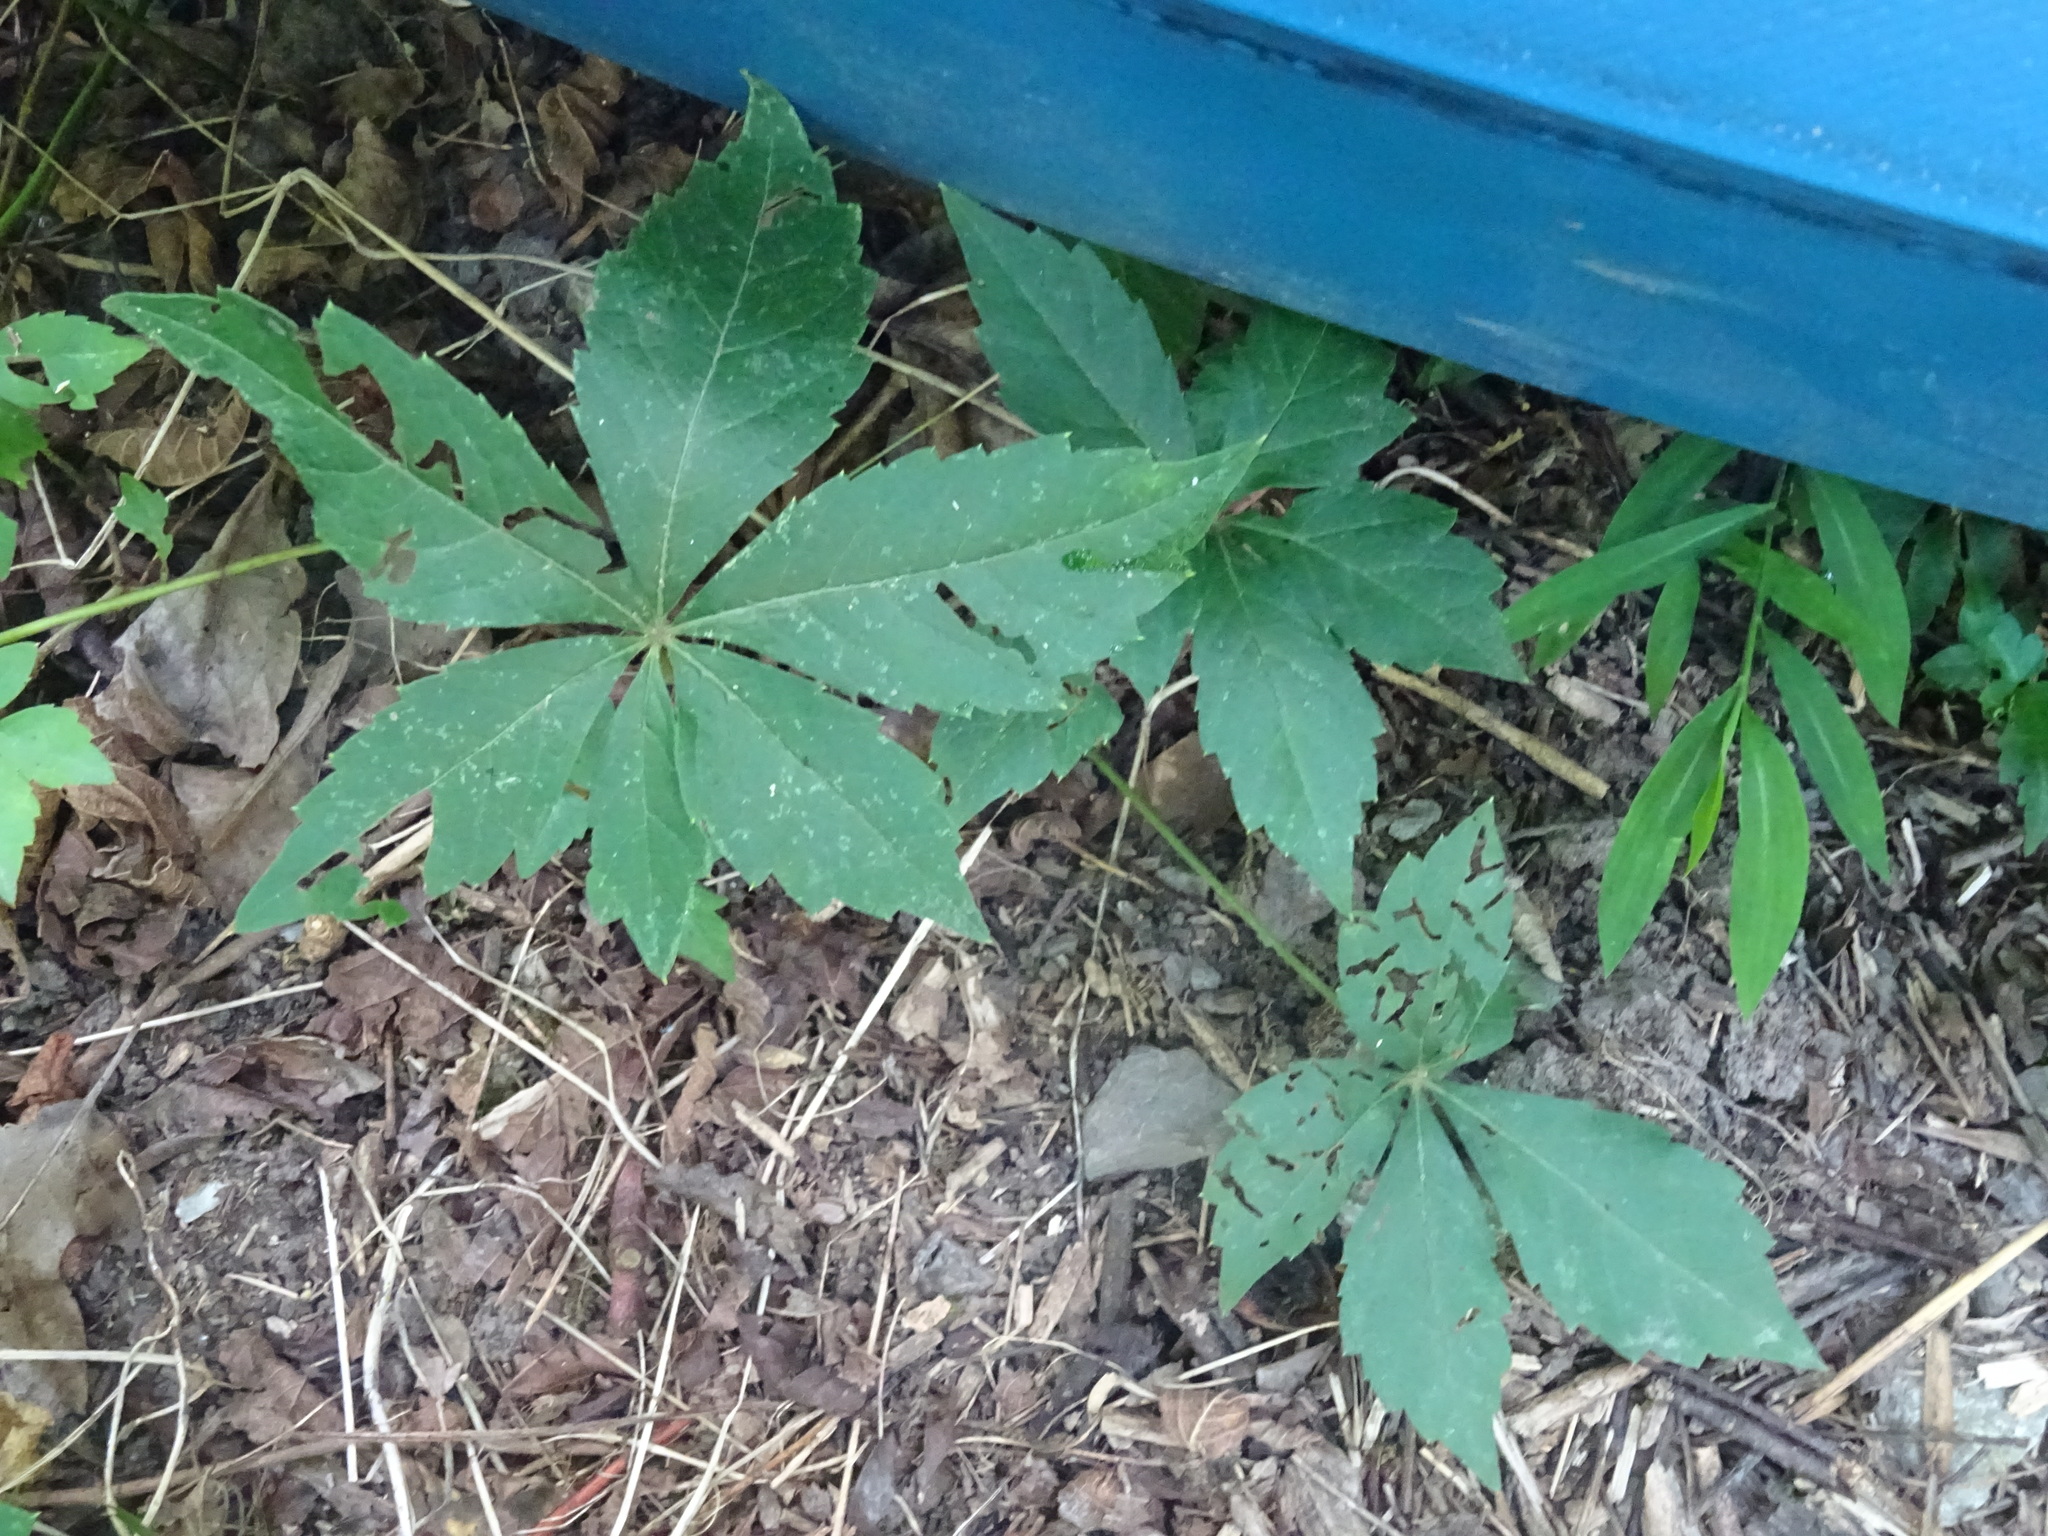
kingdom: Plantae
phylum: Tracheophyta
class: Magnoliopsida
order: Vitales
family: Vitaceae
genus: Parthenocissus
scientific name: Parthenocissus quinquefolia
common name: Virginia-creeper
